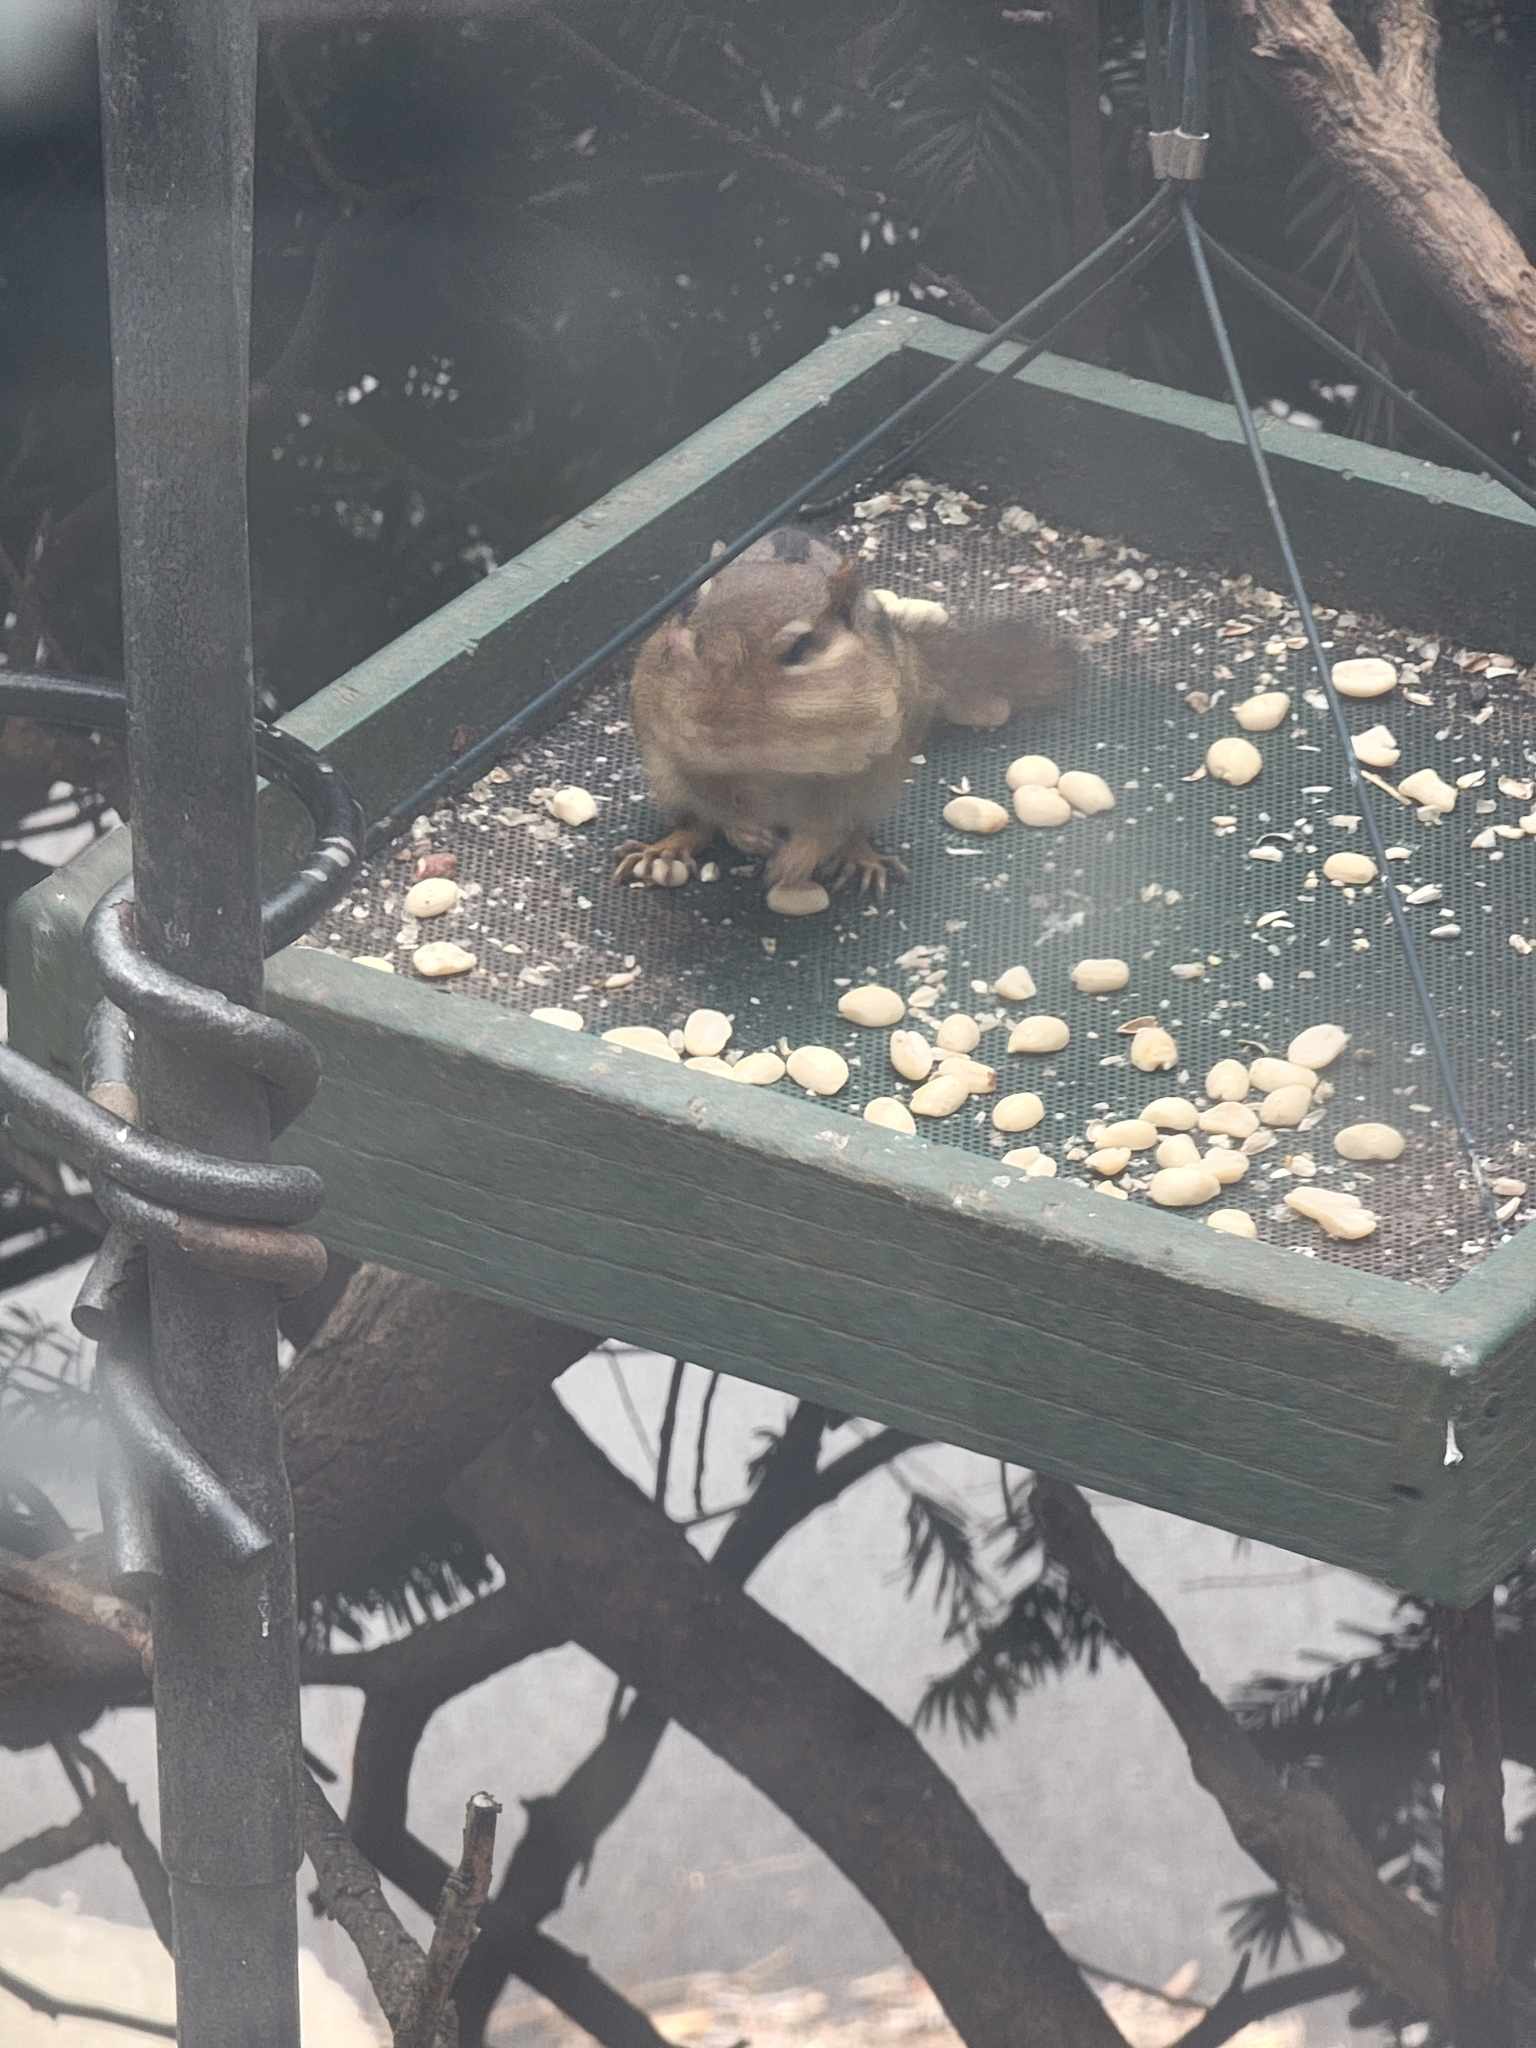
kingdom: Animalia
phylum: Chordata
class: Mammalia
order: Rodentia
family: Sciuridae
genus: Tamias
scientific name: Tamias striatus
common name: Eastern chipmunk
